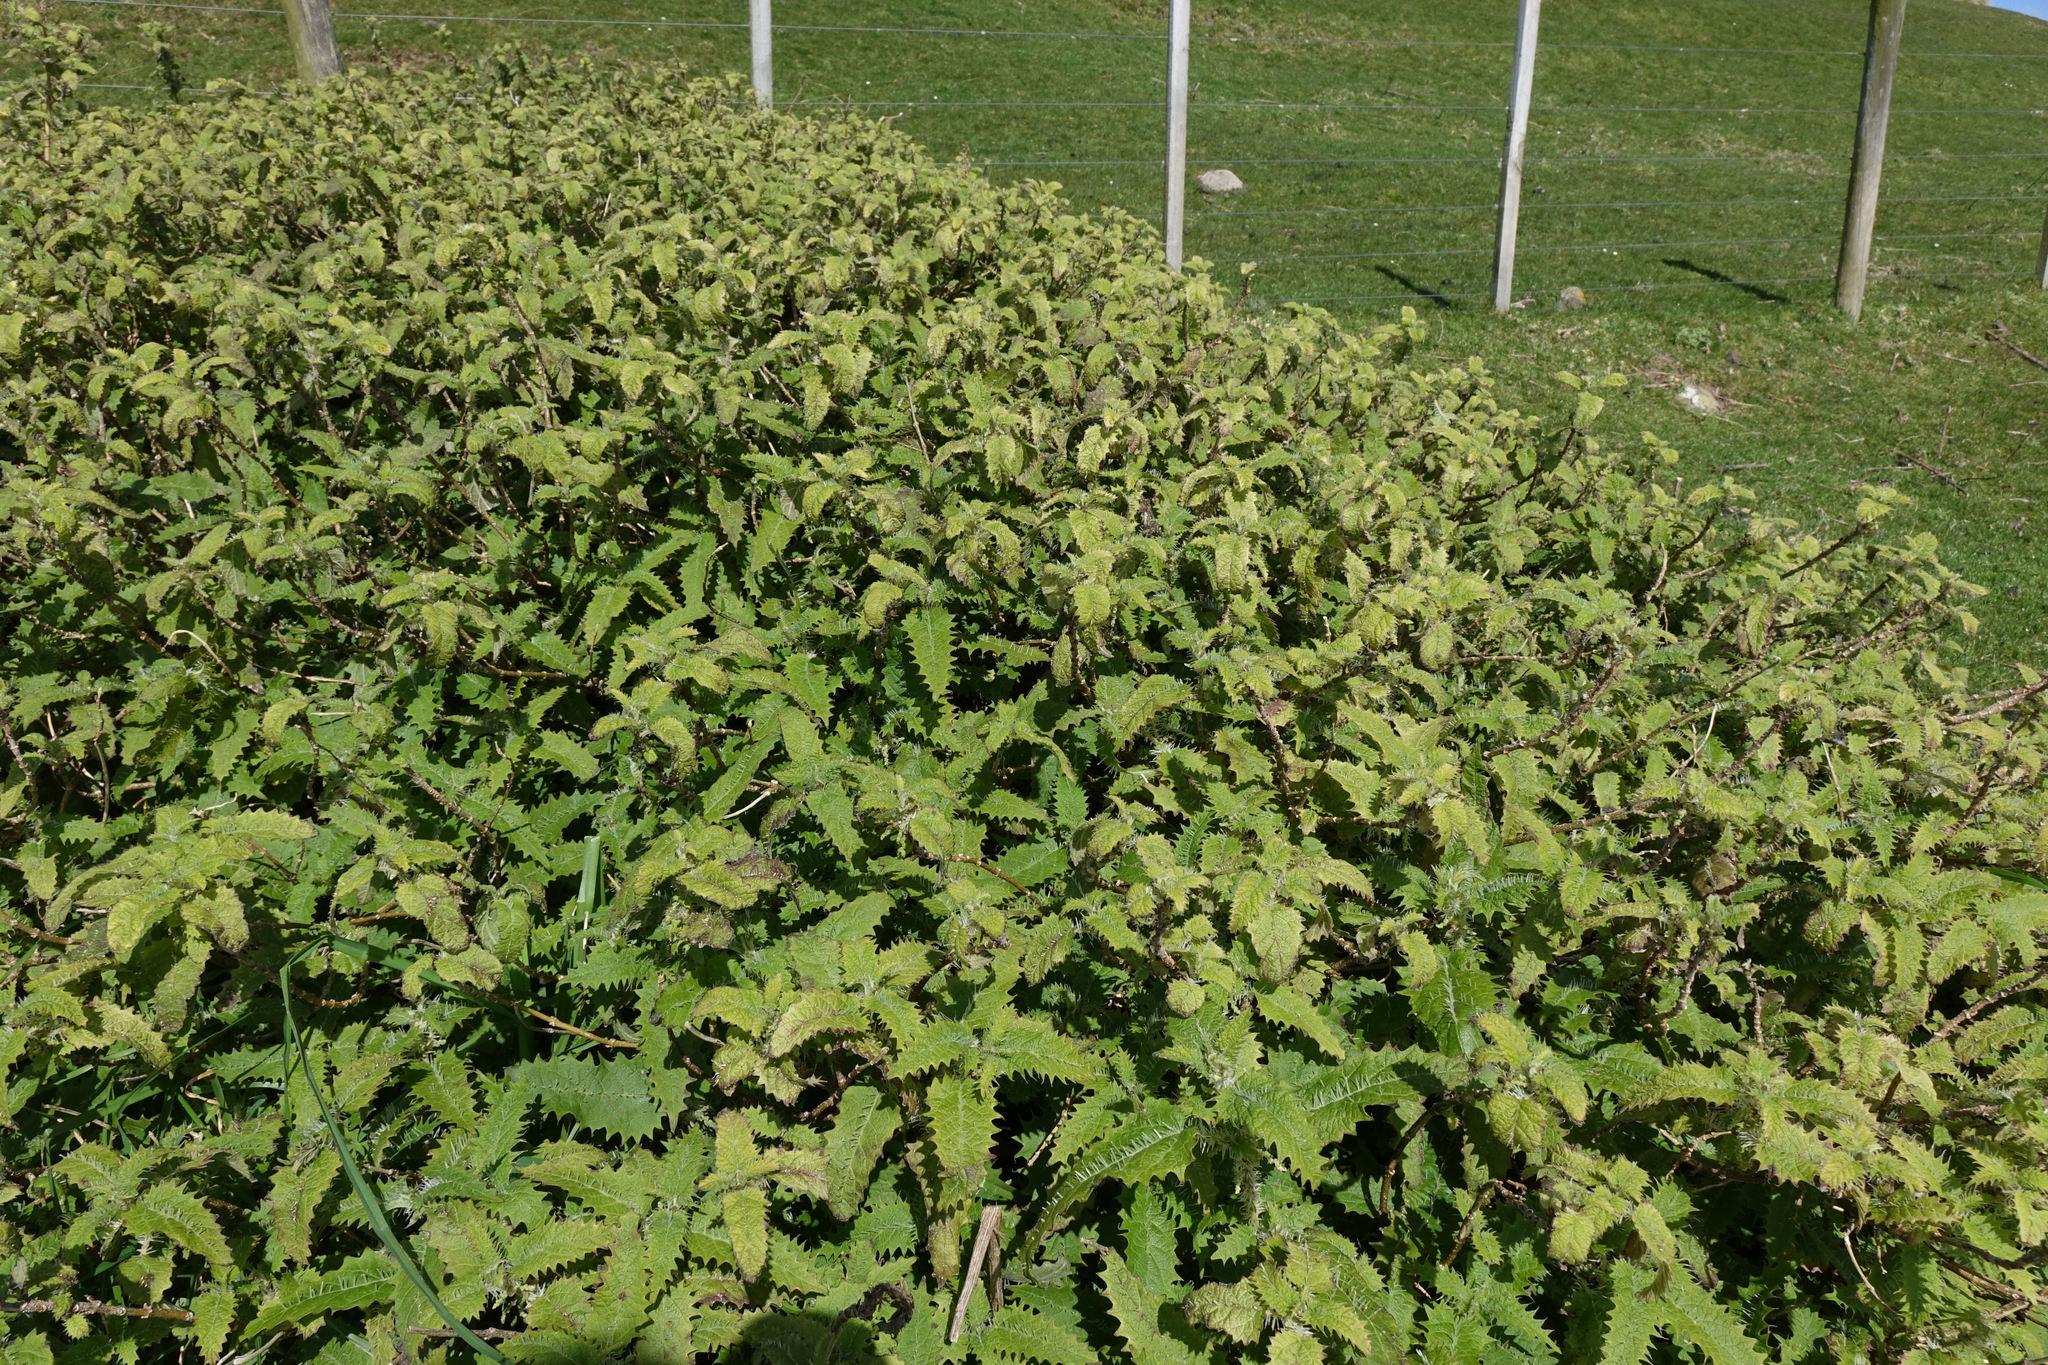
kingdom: Plantae
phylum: Tracheophyta
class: Magnoliopsida
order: Rosales
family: Urticaceae
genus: Urtica
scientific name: Urtica ferox
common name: Tree nettle
